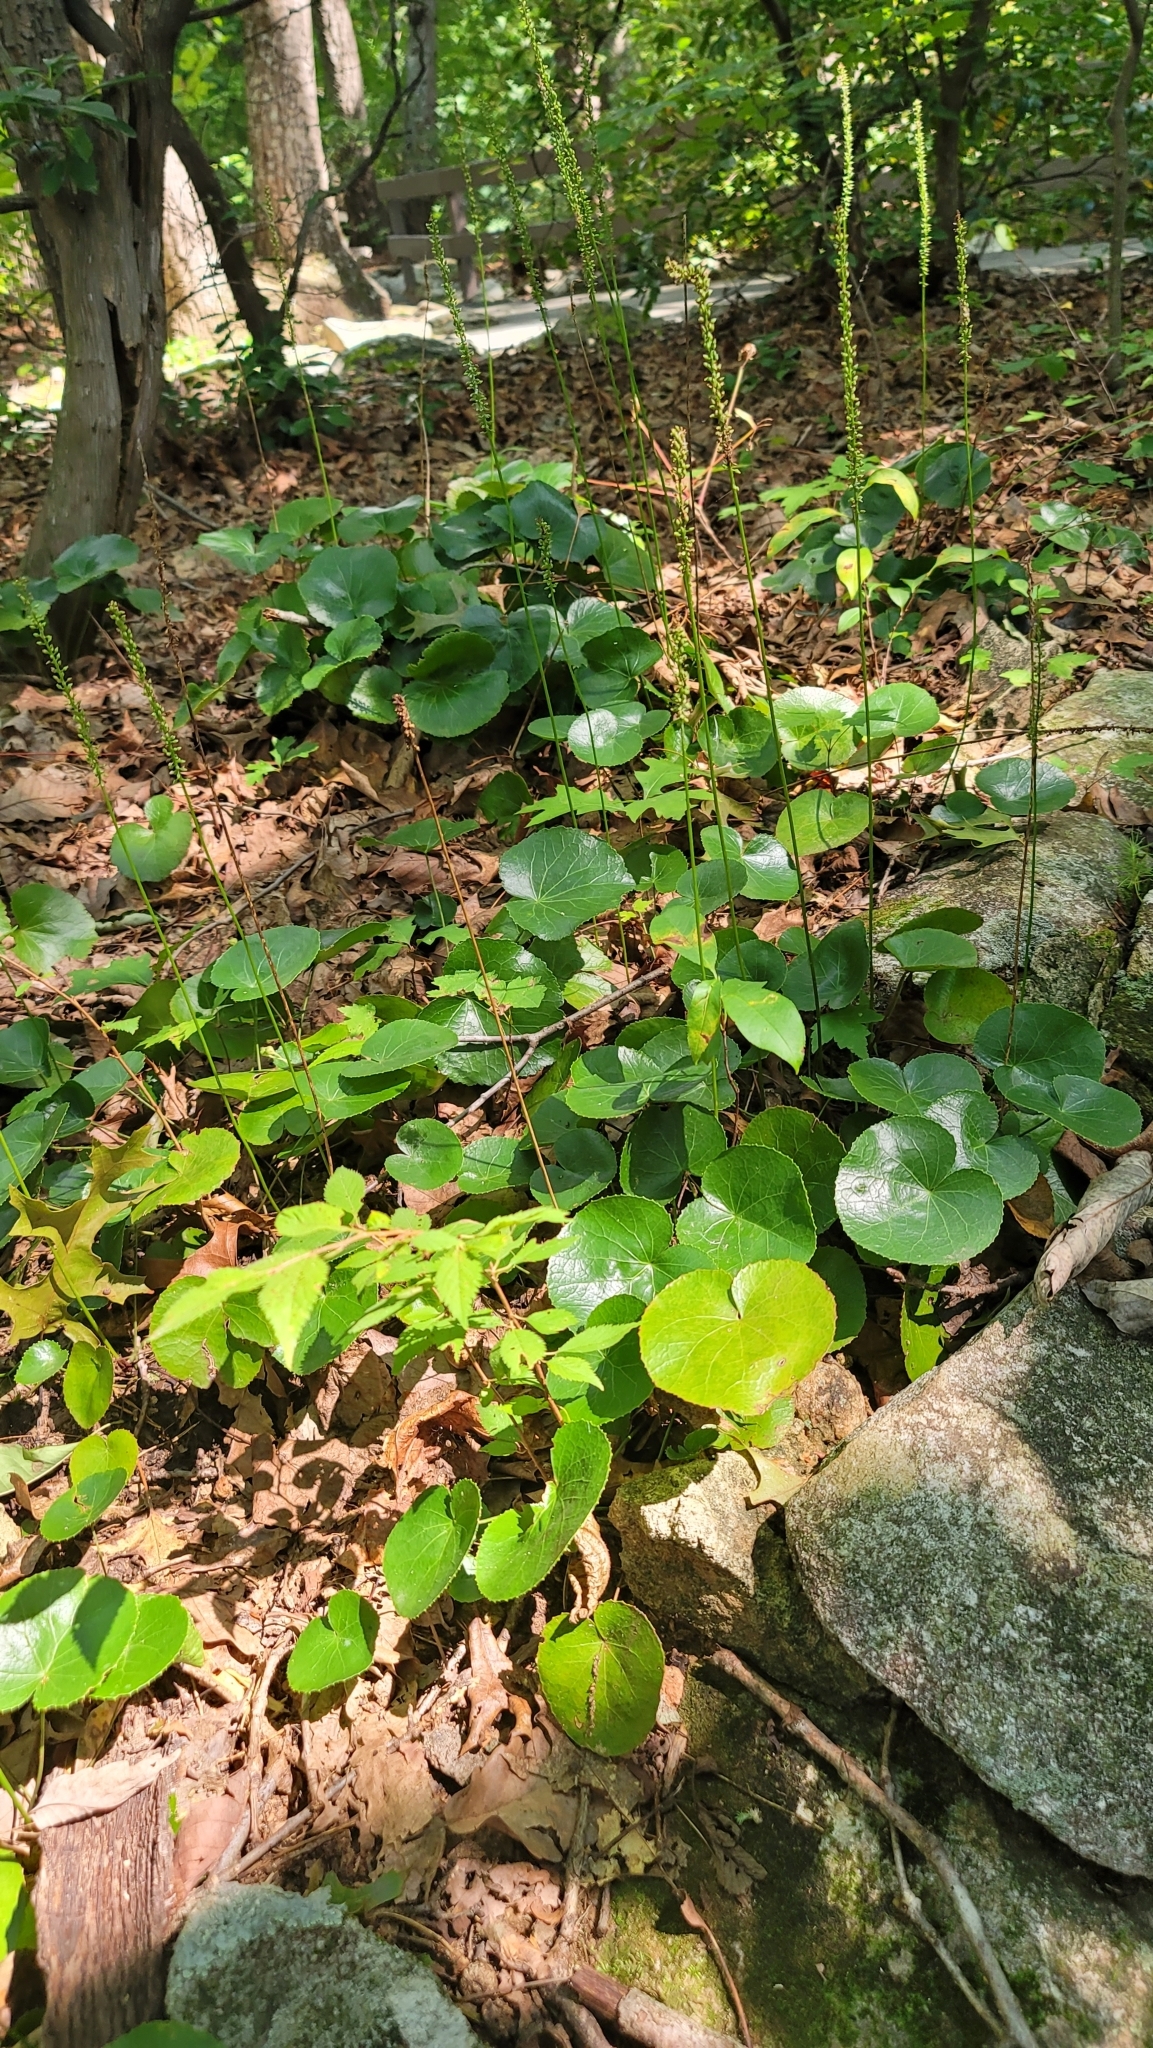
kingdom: Plantae
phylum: Tracheophyta
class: Magnoliopsida
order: Ericales
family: Diapensiaceae
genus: Galax
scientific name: Galax urceolata
